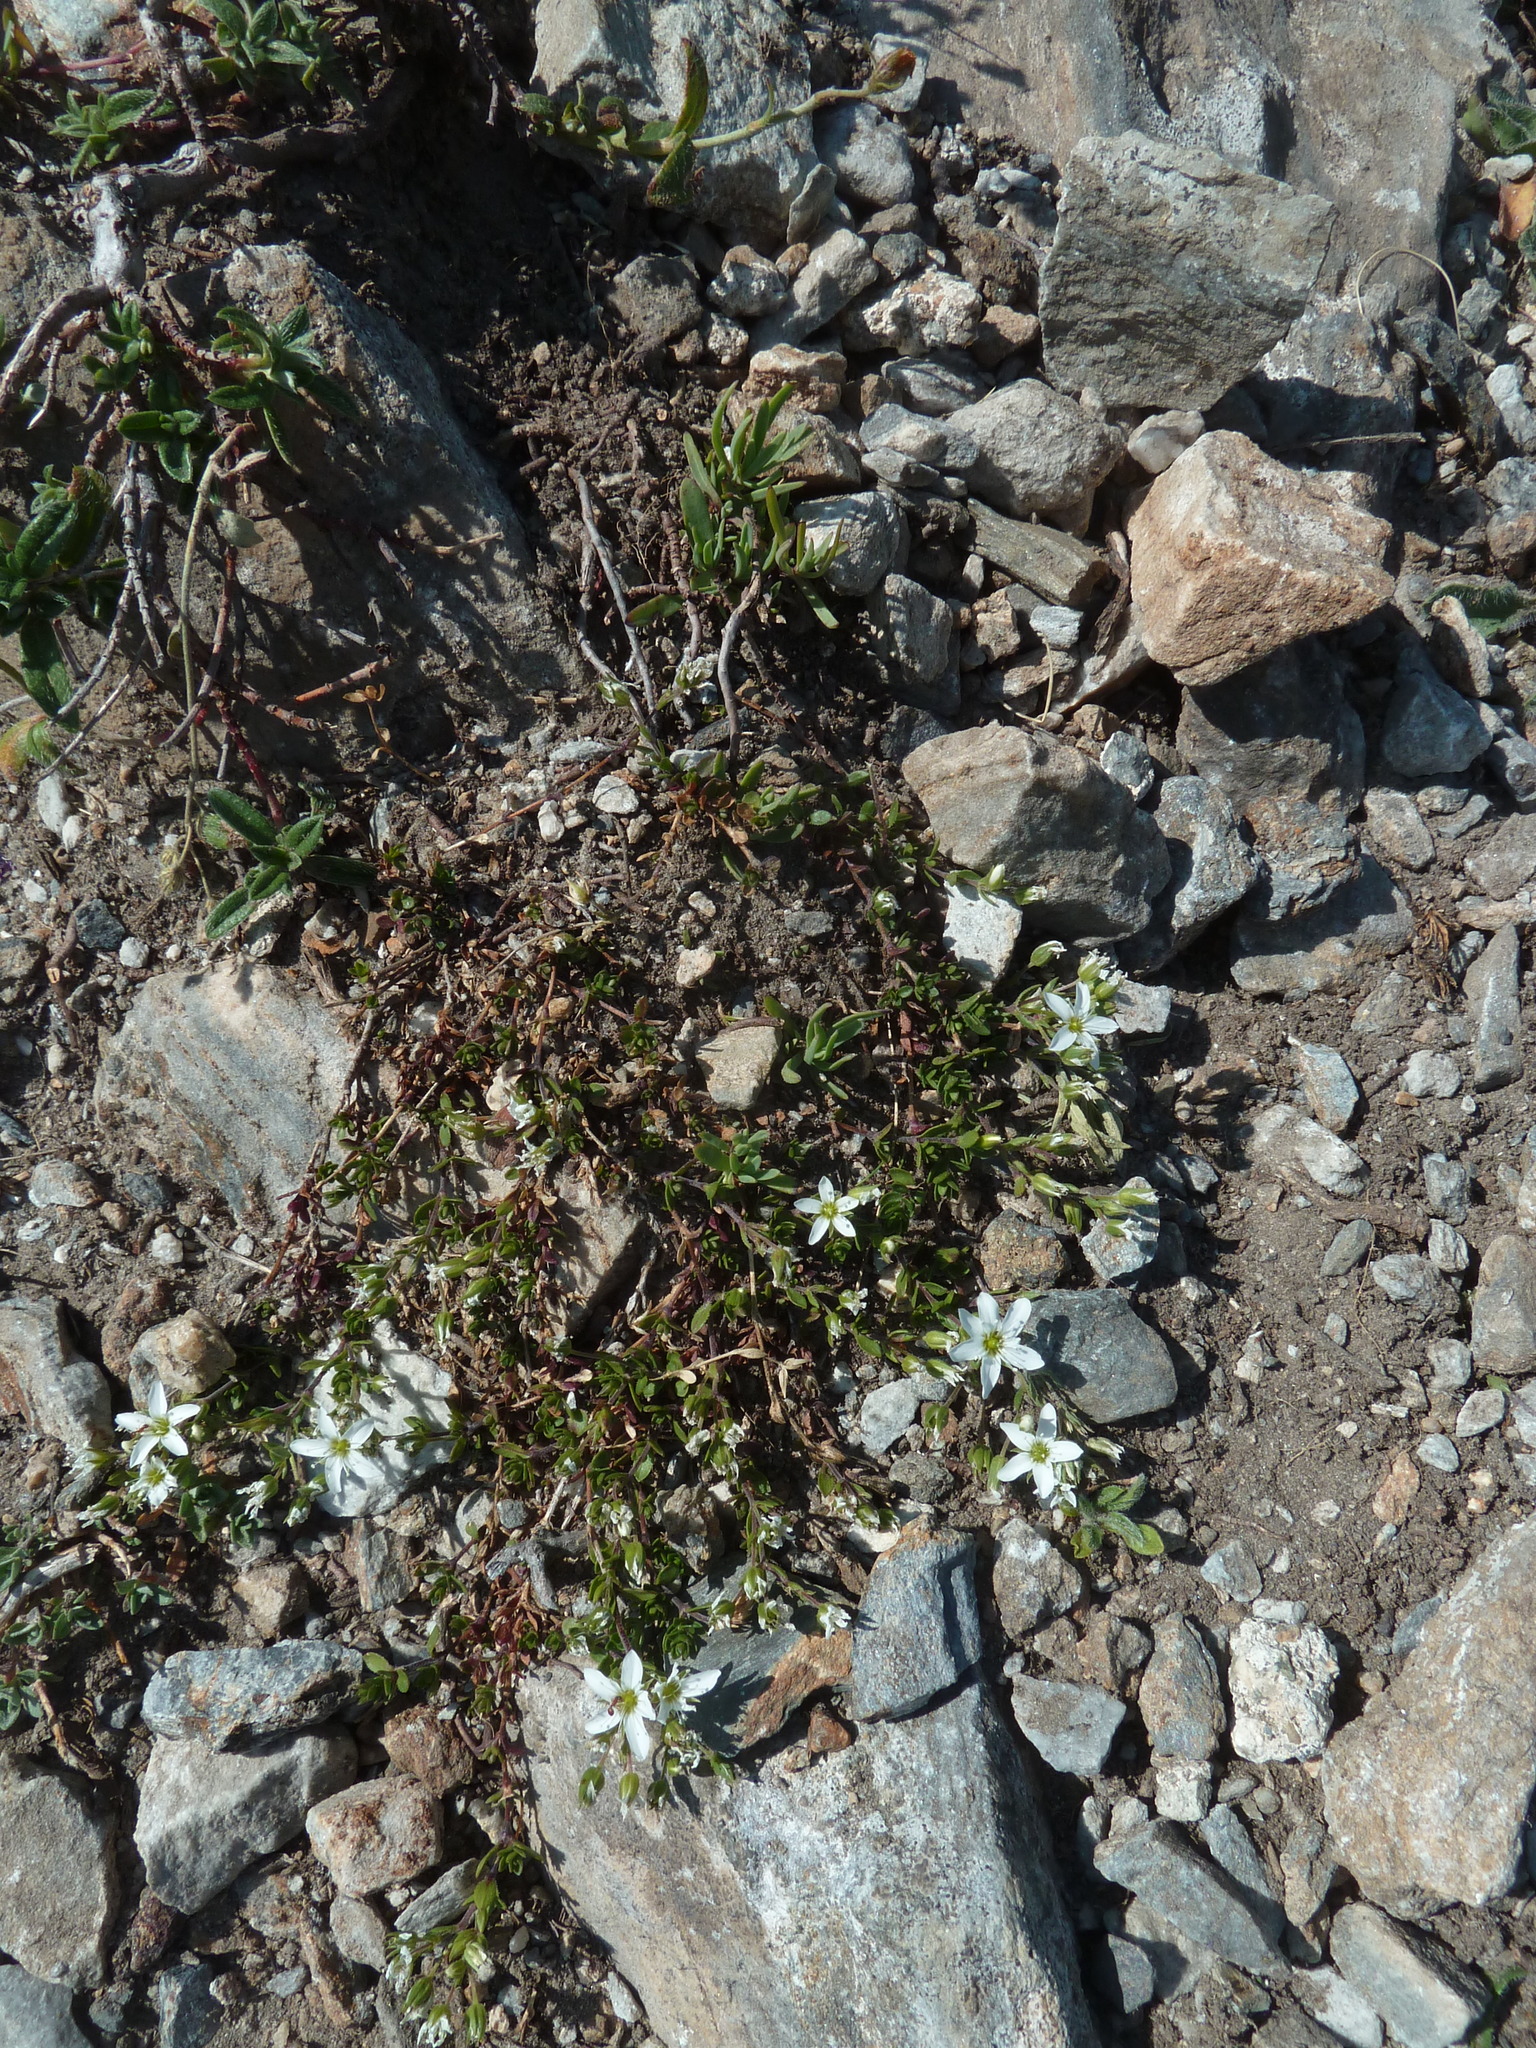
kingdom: Plantae
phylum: Tracheophyta
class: Magnoliopsida
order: Caryophyllales
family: Caryophyllaceae
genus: Arenaria
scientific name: Arenaria ciliata
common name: Fringed sandwort
